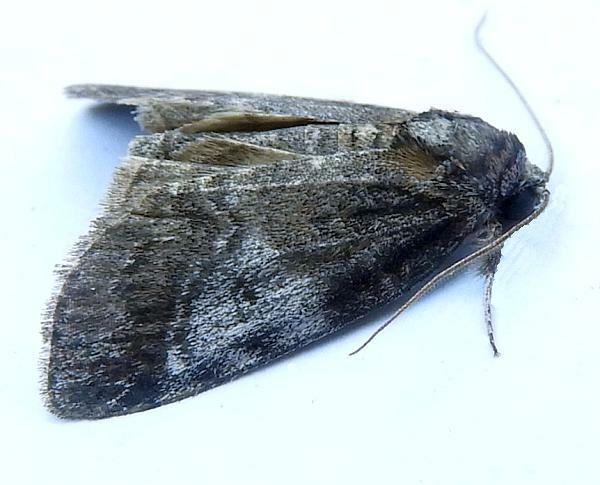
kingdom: Animalia
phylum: Arthropoda
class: Insecta
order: Lepidoptera
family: Nolidae
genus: Baileya
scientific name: Baileya levitans
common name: Pale baileya
